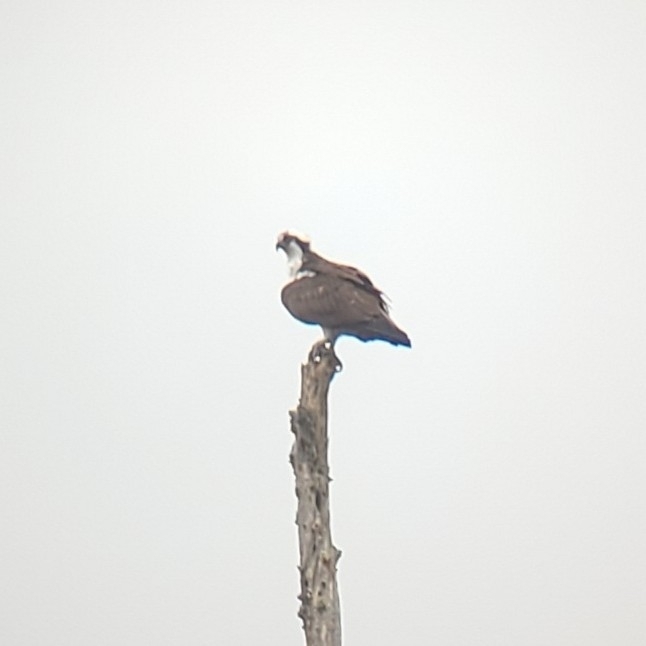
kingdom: Animalia
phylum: Chordata
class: Aves
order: Accipitriformes
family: Pandionidae
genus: Pandion
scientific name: Pandion haliaetus
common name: Osprey
